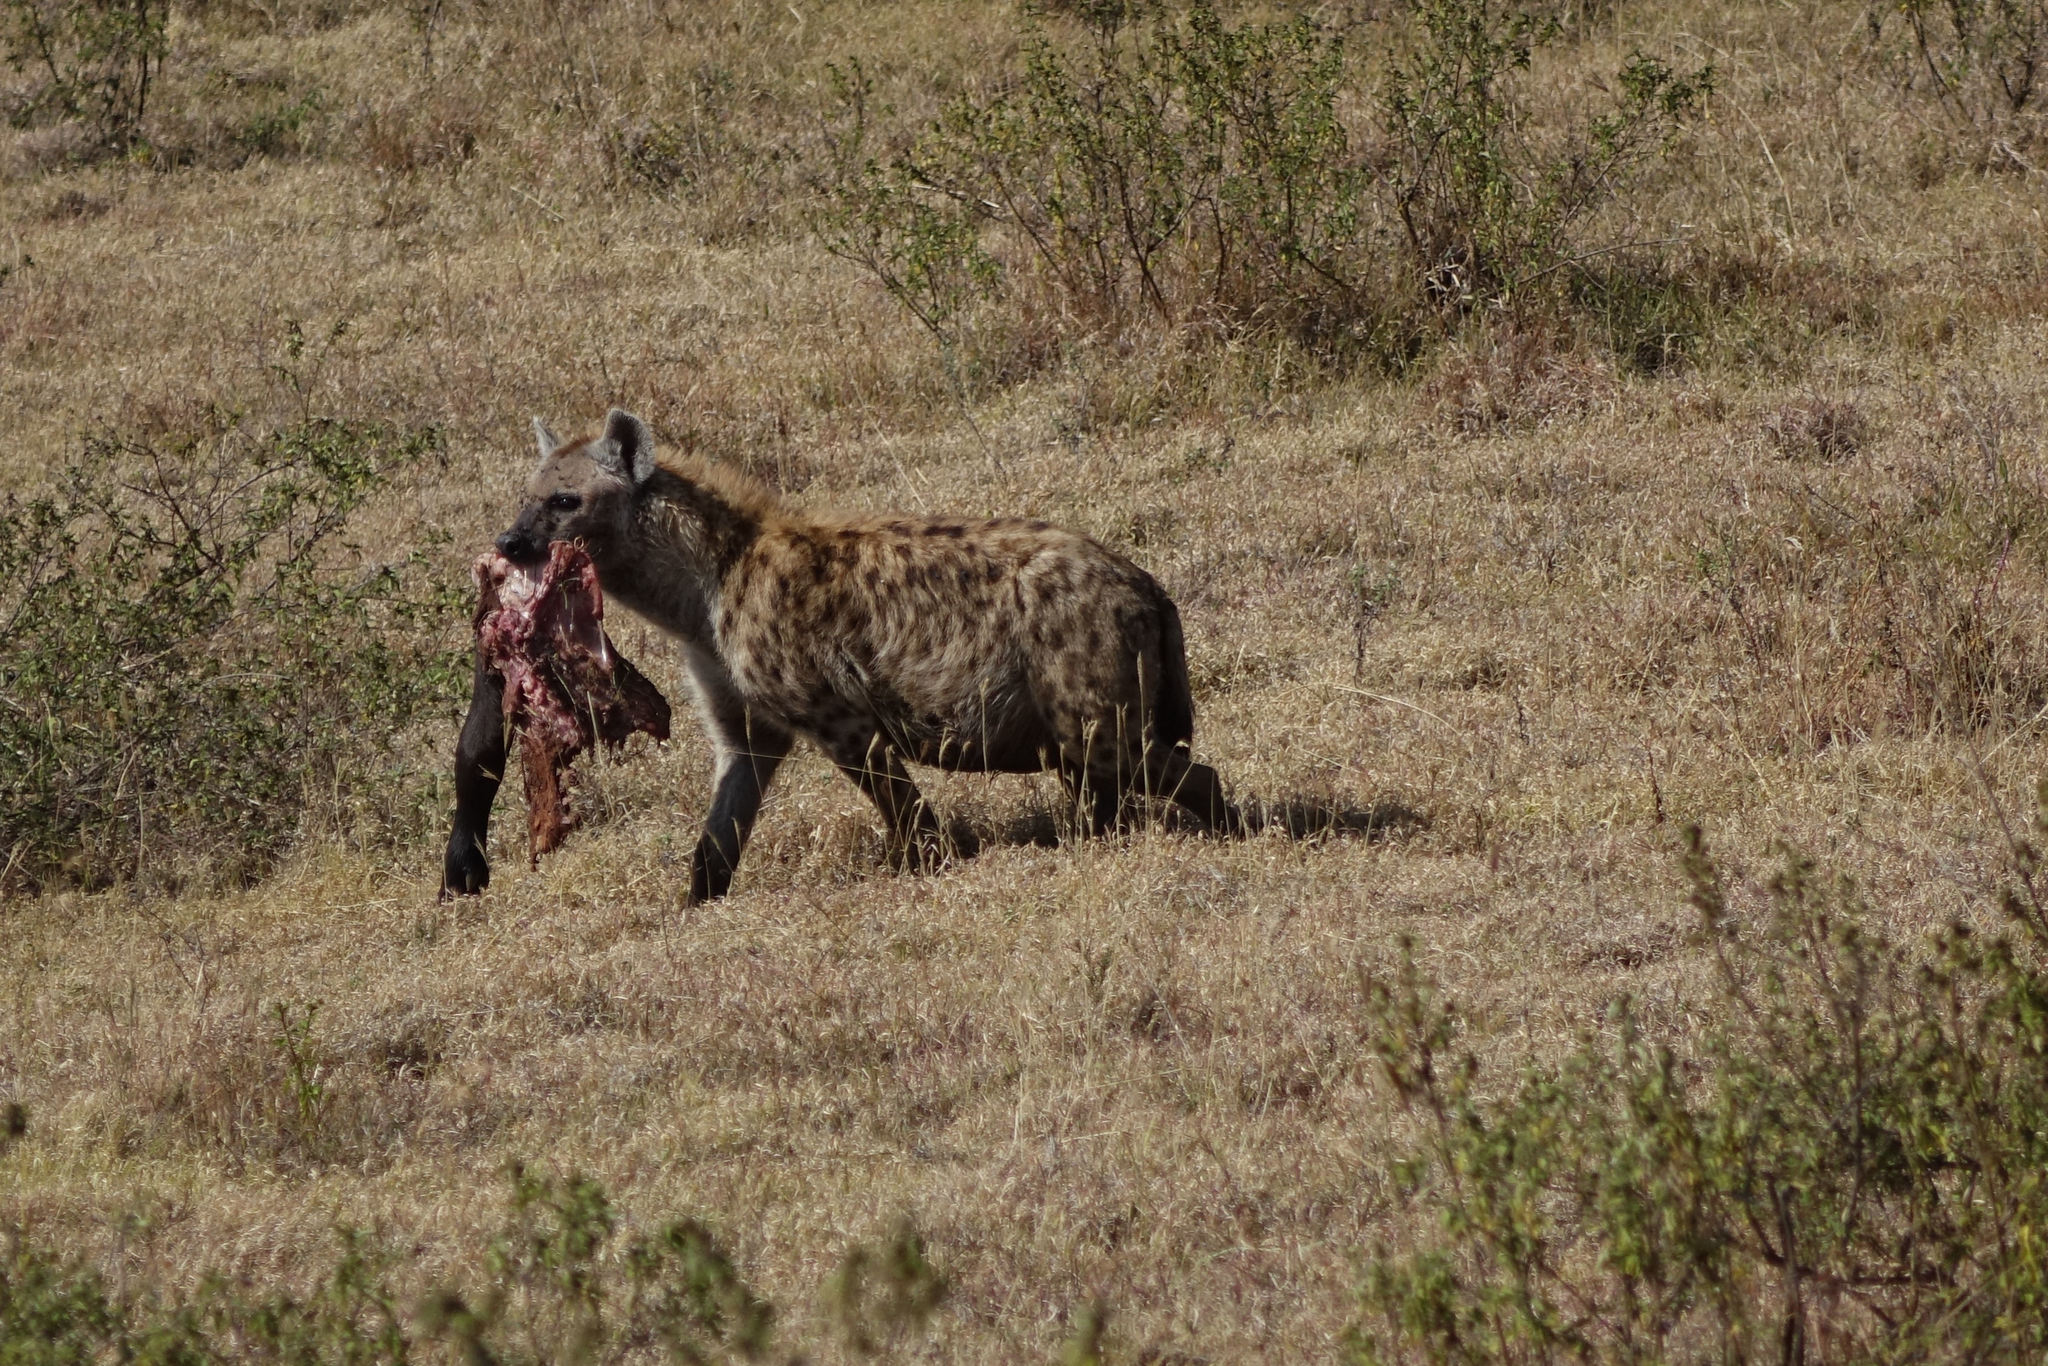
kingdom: Animalia
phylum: Chordata
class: Mammalia
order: Carnivora
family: Hyaenidae
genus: Crocuta
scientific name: Crocuta crocuta
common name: Spotted hyaena
